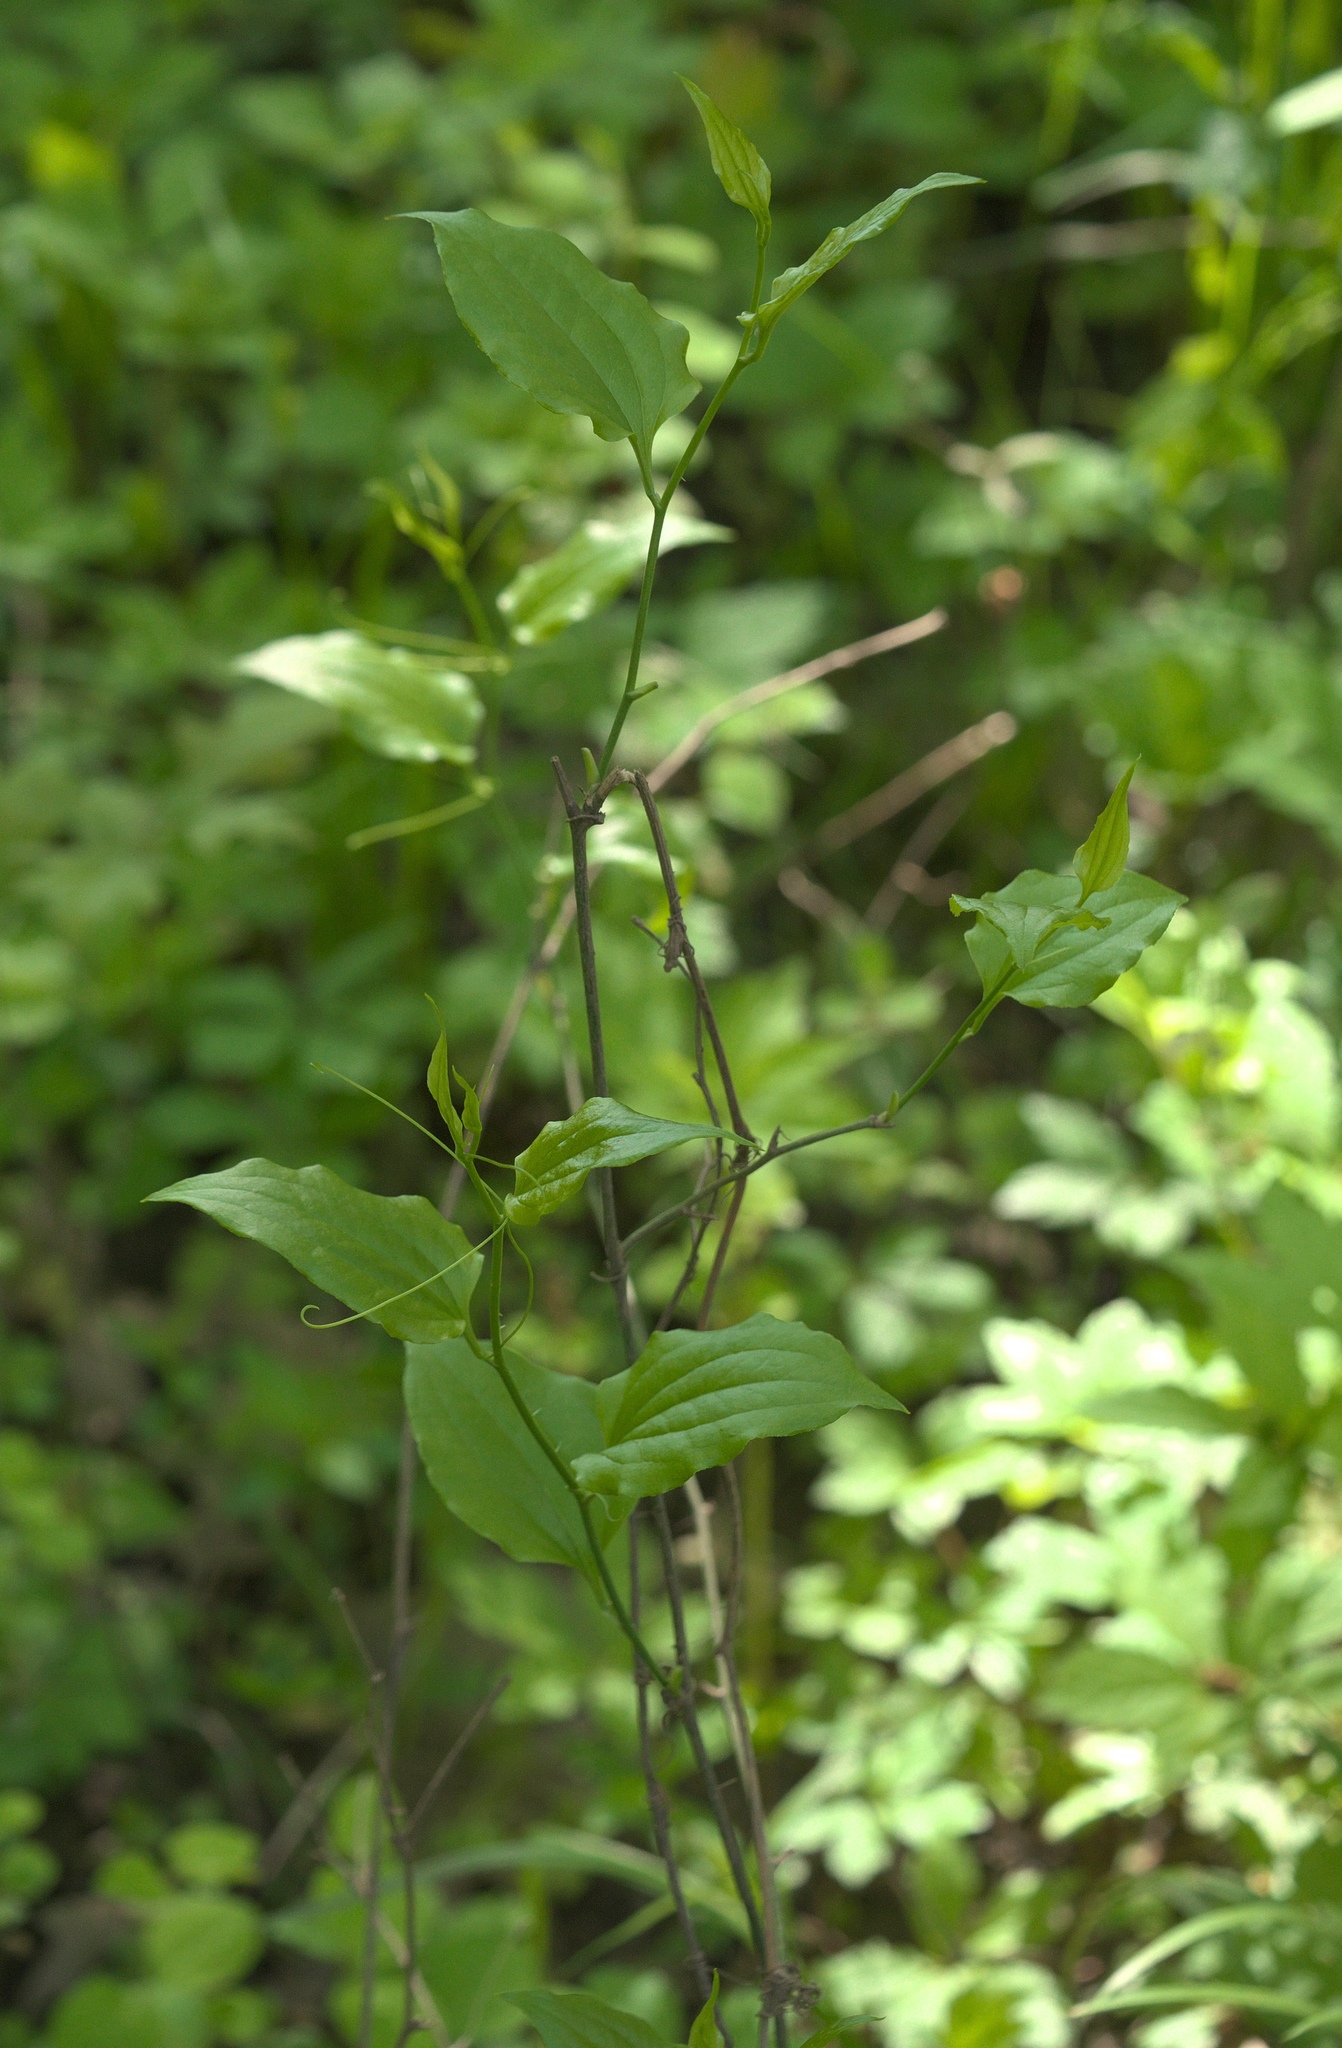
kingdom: Plantae
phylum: Tracheophyta
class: Liliopsida
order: Liliales
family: Smilacaceae
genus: Smilax
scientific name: Smilax tamnoides
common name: Hellfetter
